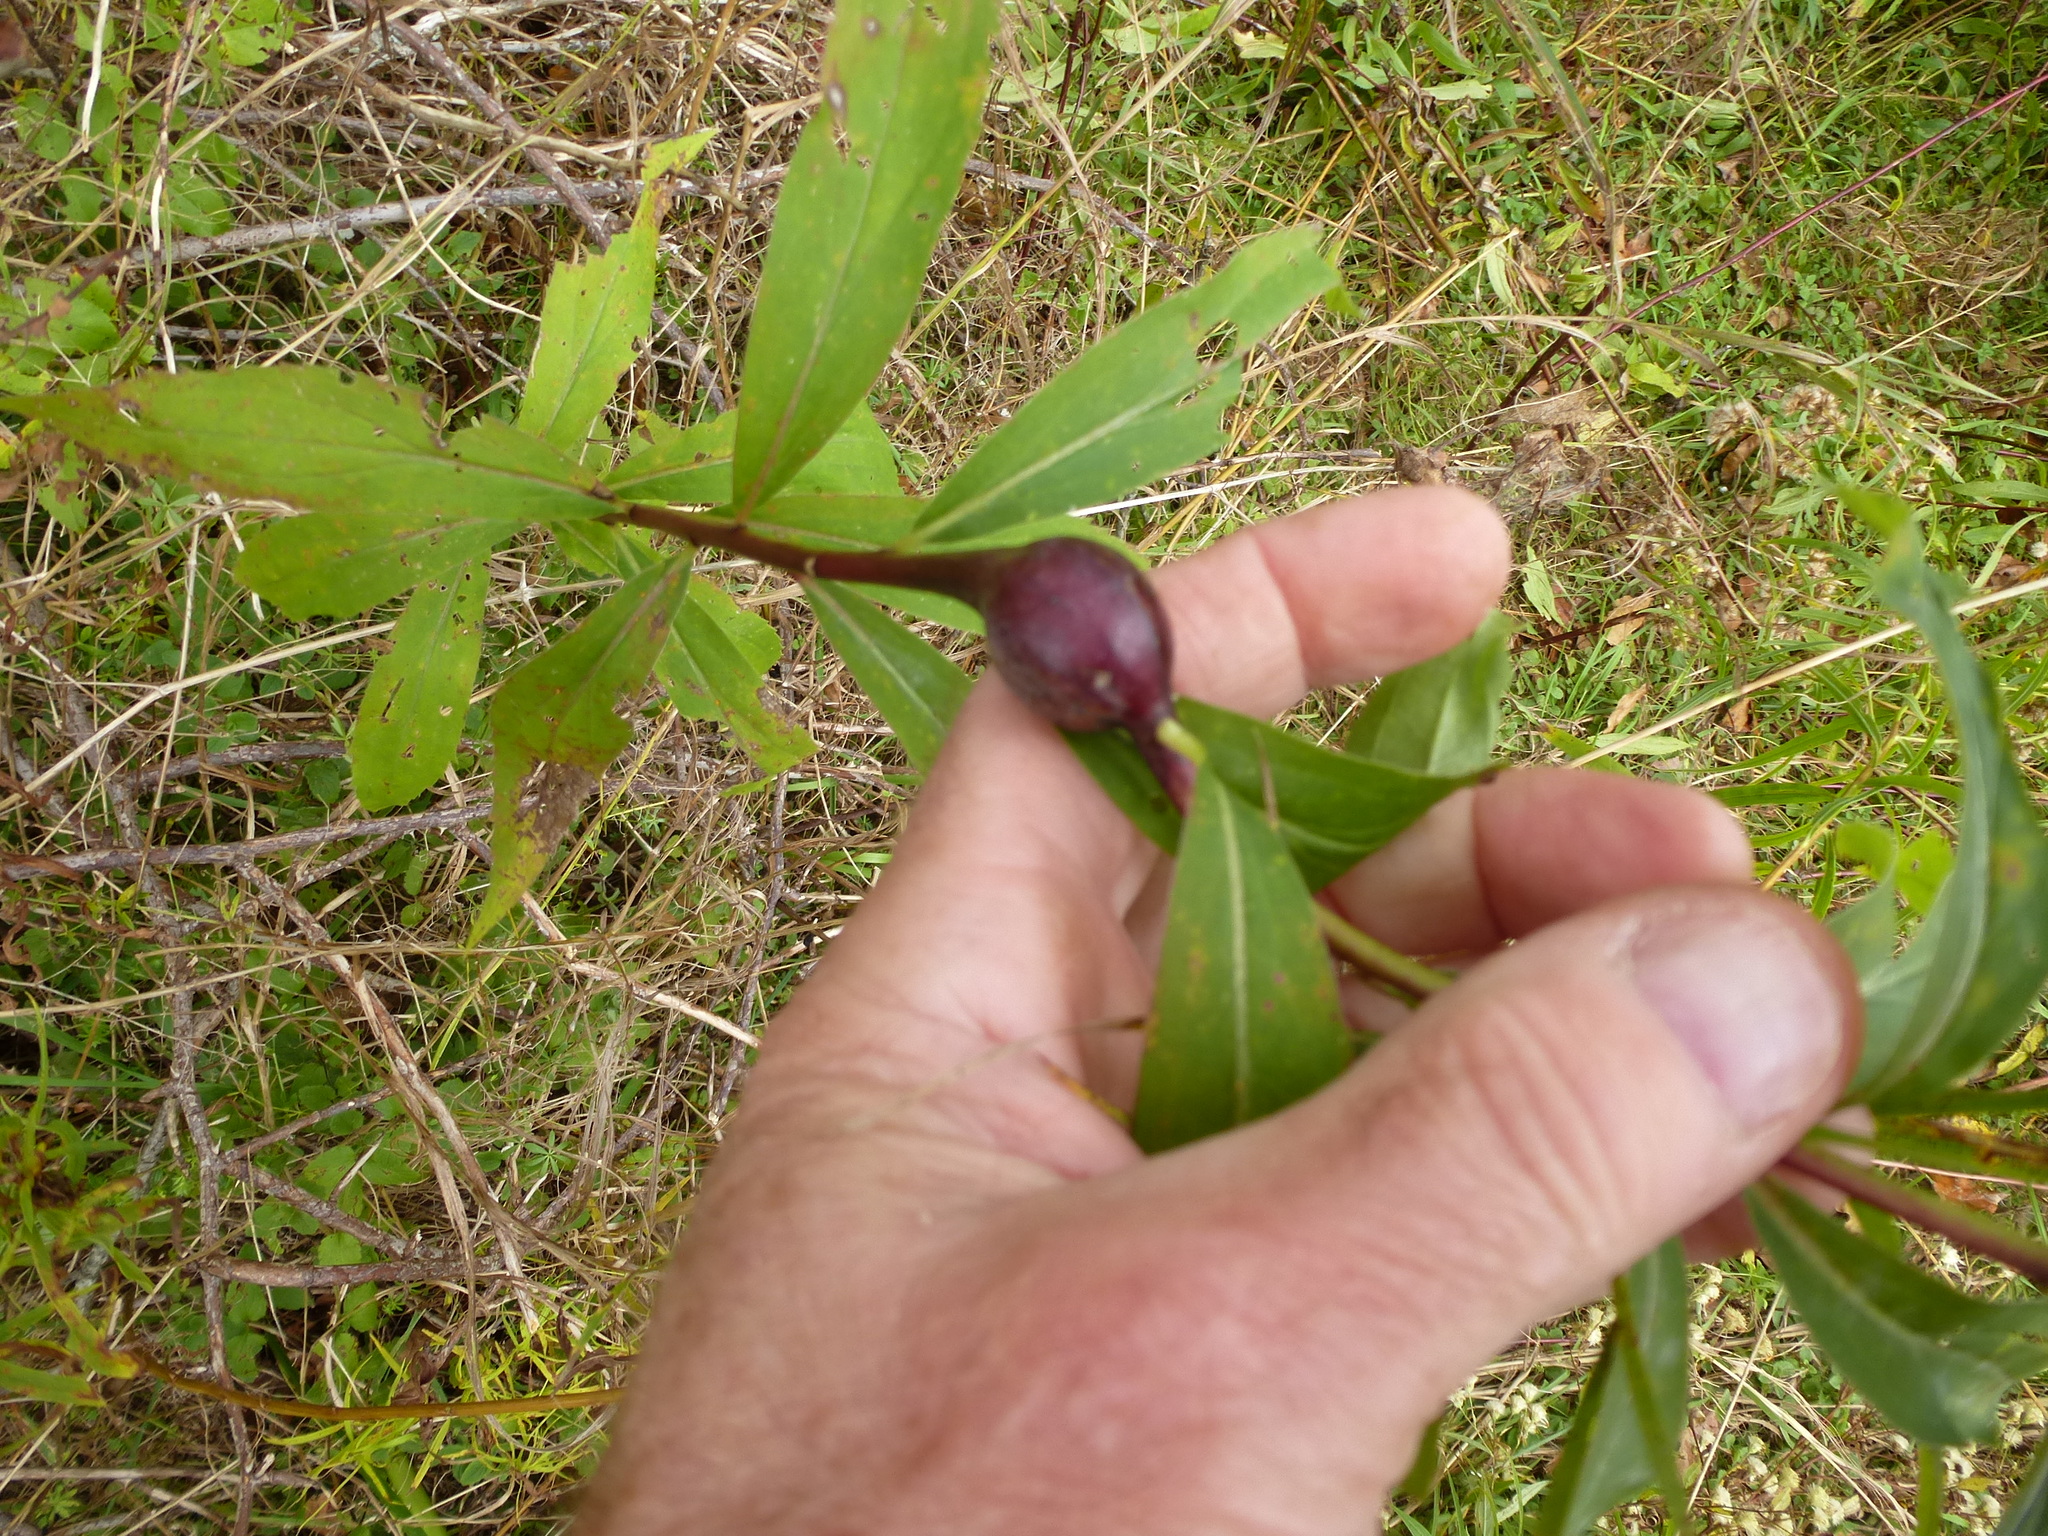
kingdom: Animalia
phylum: Arthropoda
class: Insecta
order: Diptera
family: Tephritidae
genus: Eurosta
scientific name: Eurosta solidaginis
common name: Goldenrod gall fly
